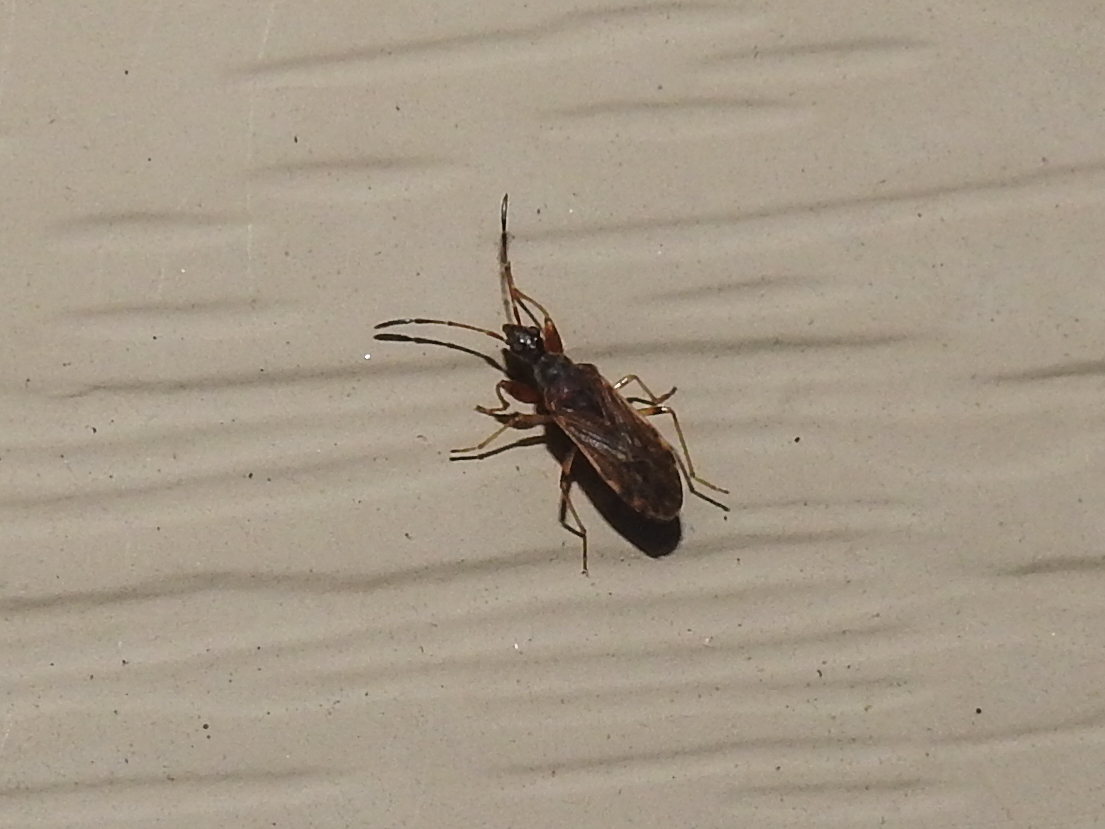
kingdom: Animalia
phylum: Arthropoda
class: Insecta
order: Hemiptera
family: Rhyparochromidae
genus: Heraeus
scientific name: Heraeus plebejus
